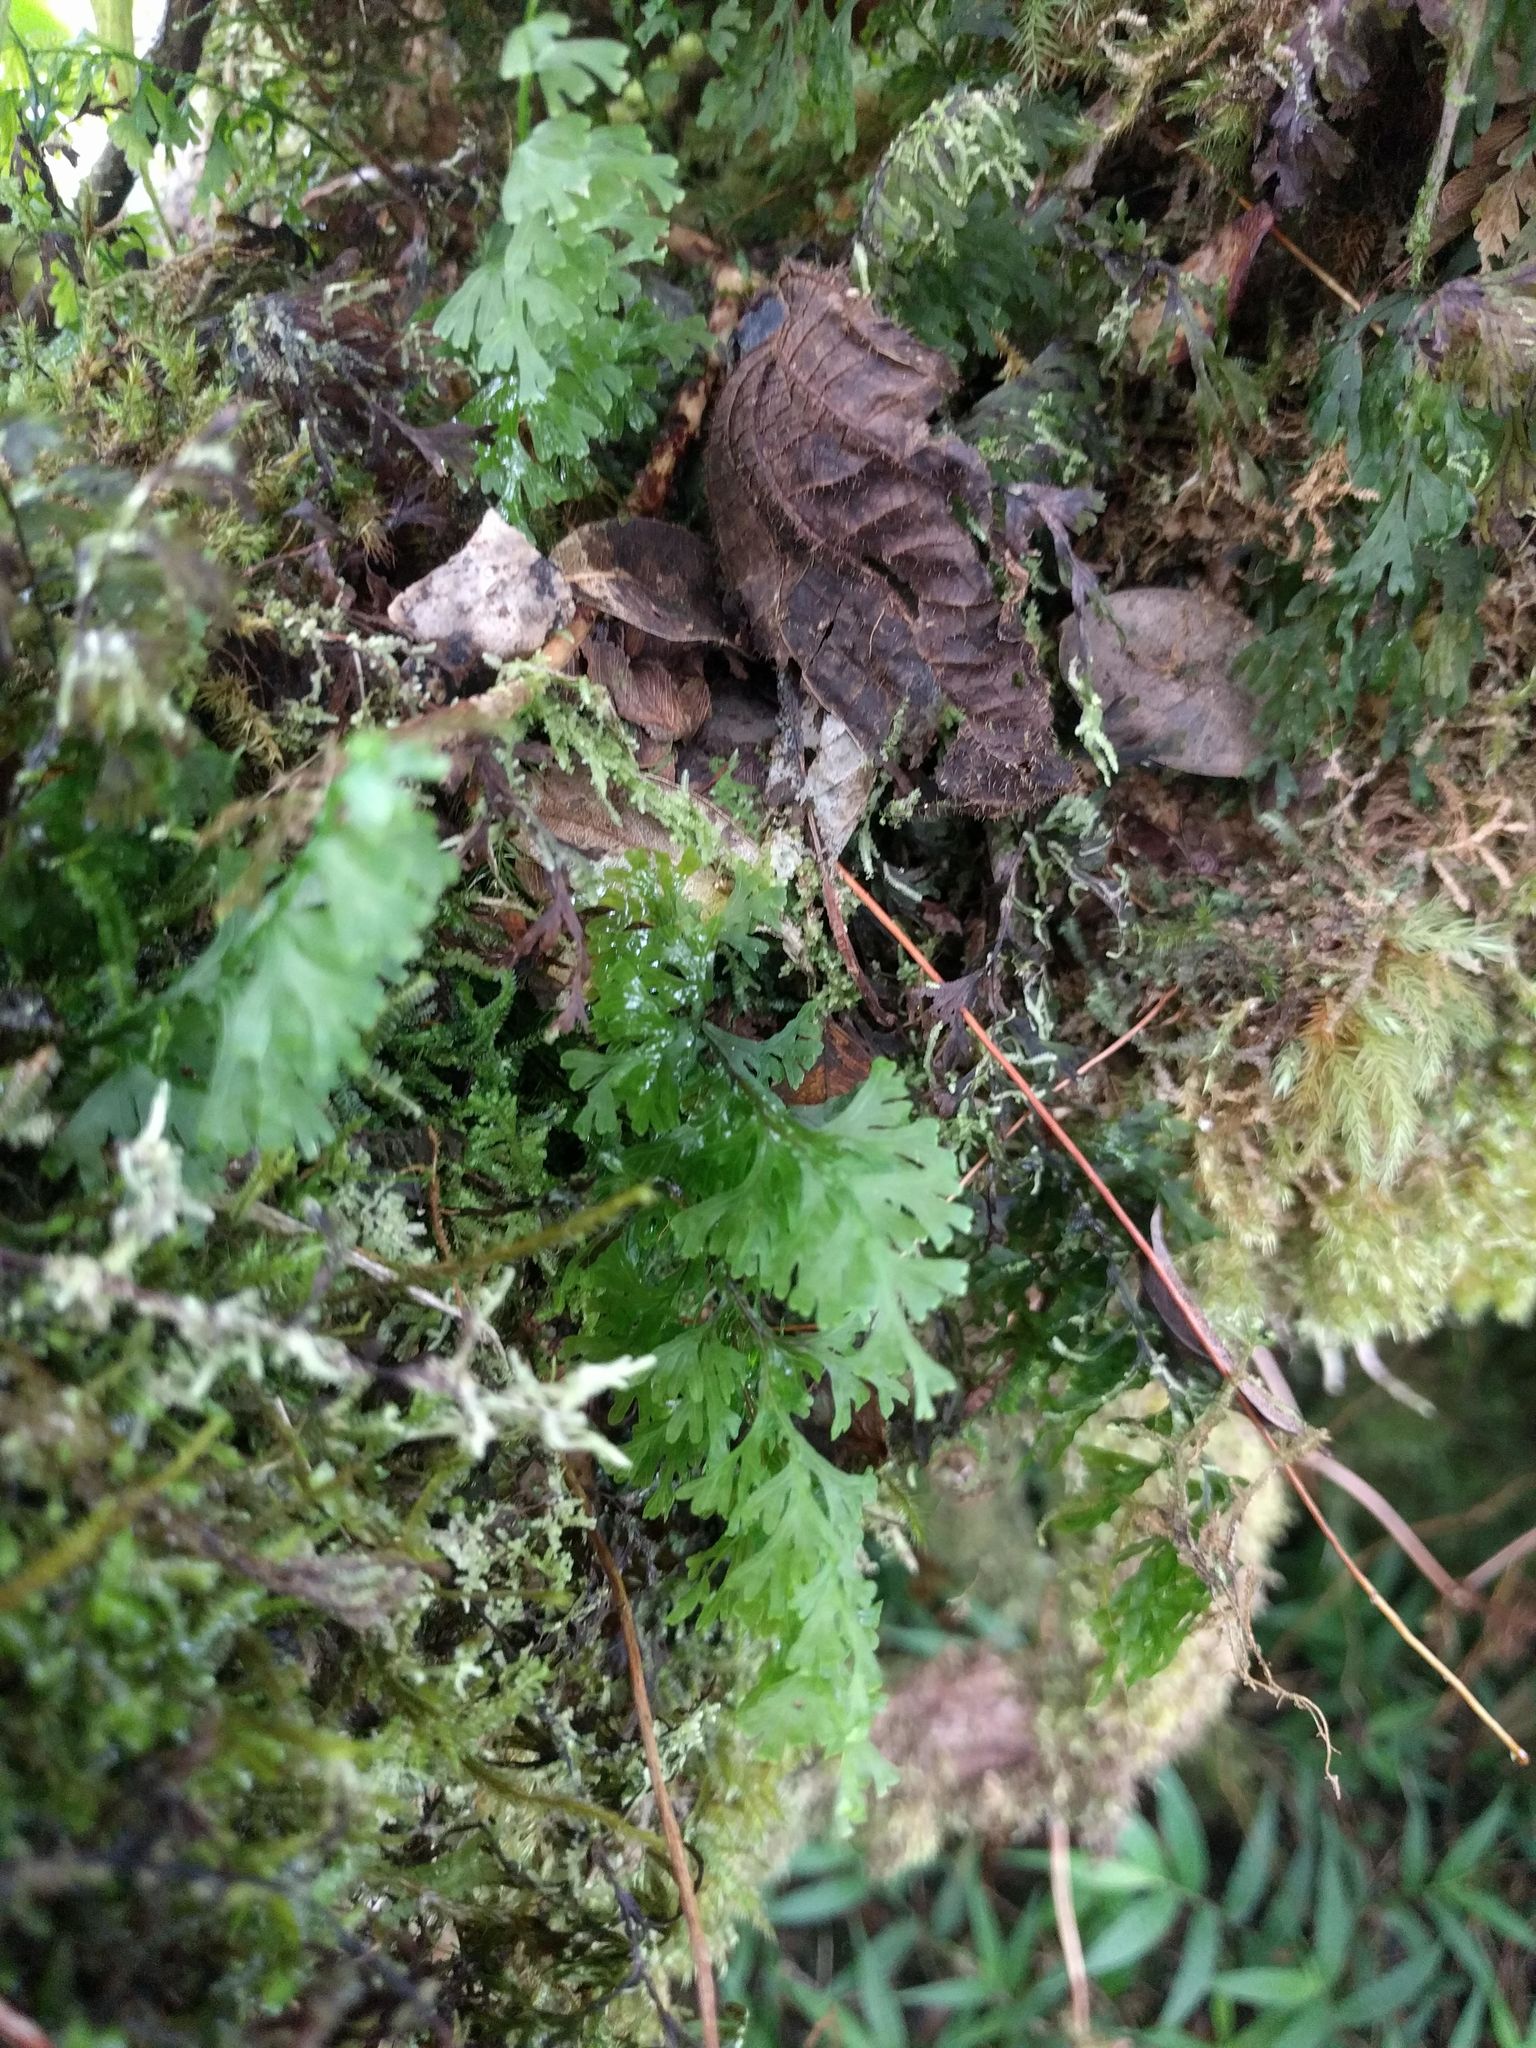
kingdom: Plantae
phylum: Tracheophyta
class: Polypodiopsida
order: Hymenophyllales
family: Hymenophyllaceae
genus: Hymenophyllum
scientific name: Hymenophyllum recurvum
